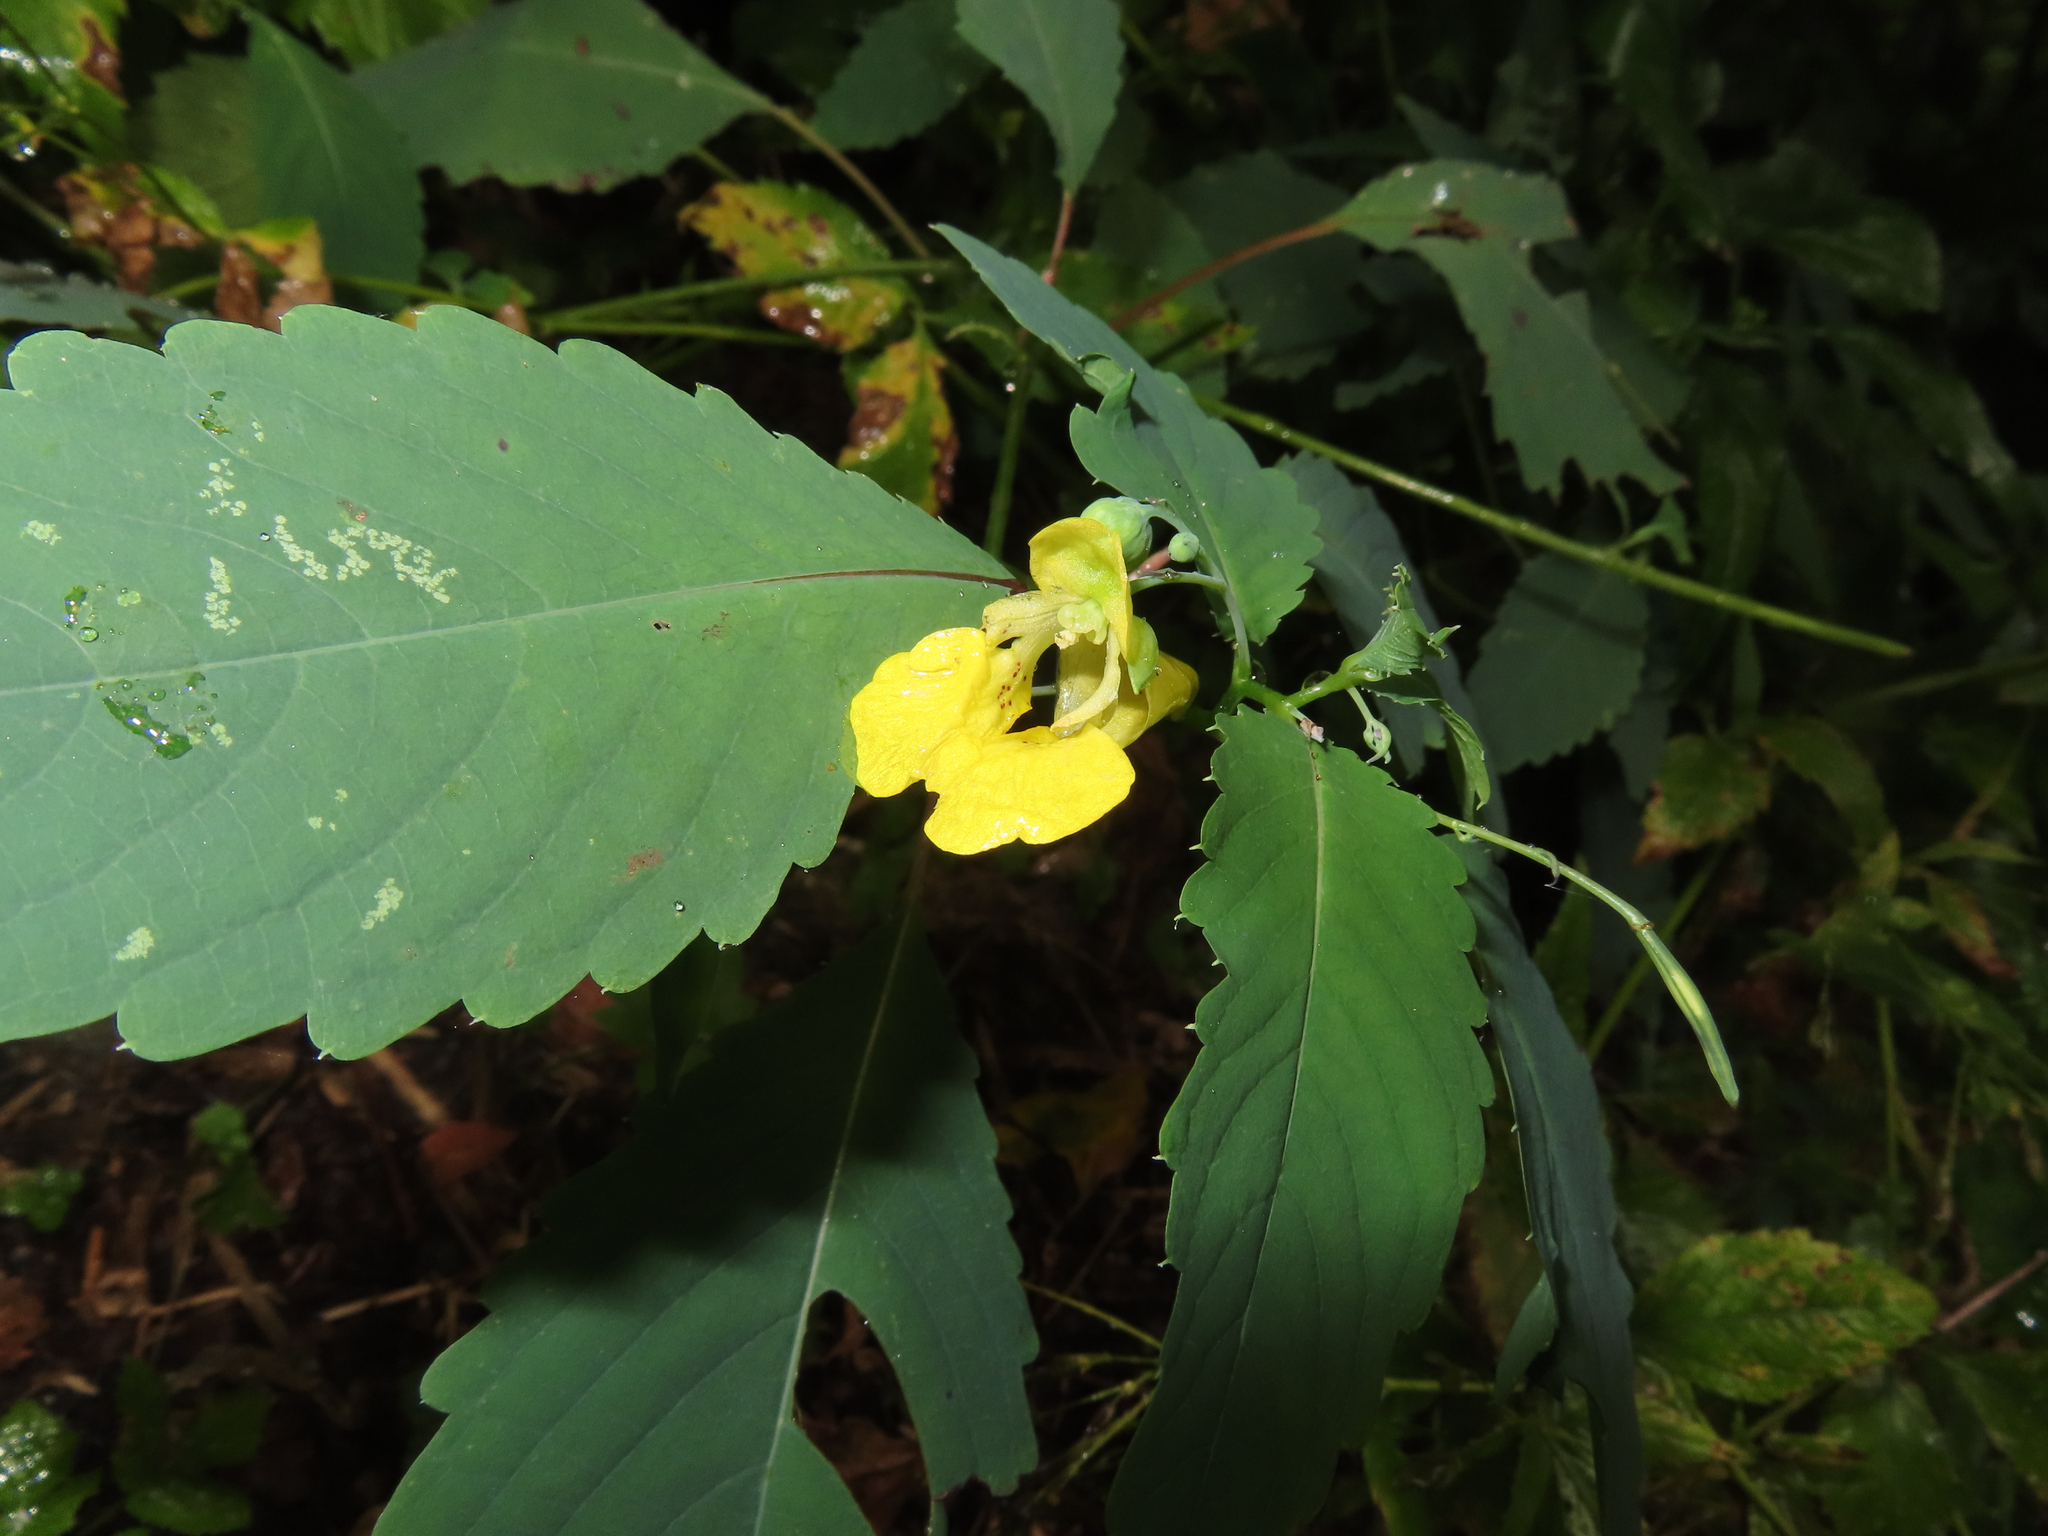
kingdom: Plantae
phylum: Tracheophyta
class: Magnoliopsida
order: Ericales
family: Balsaminaceae
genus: Impatiens
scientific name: Impatiens pallida
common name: Pale snapweed
